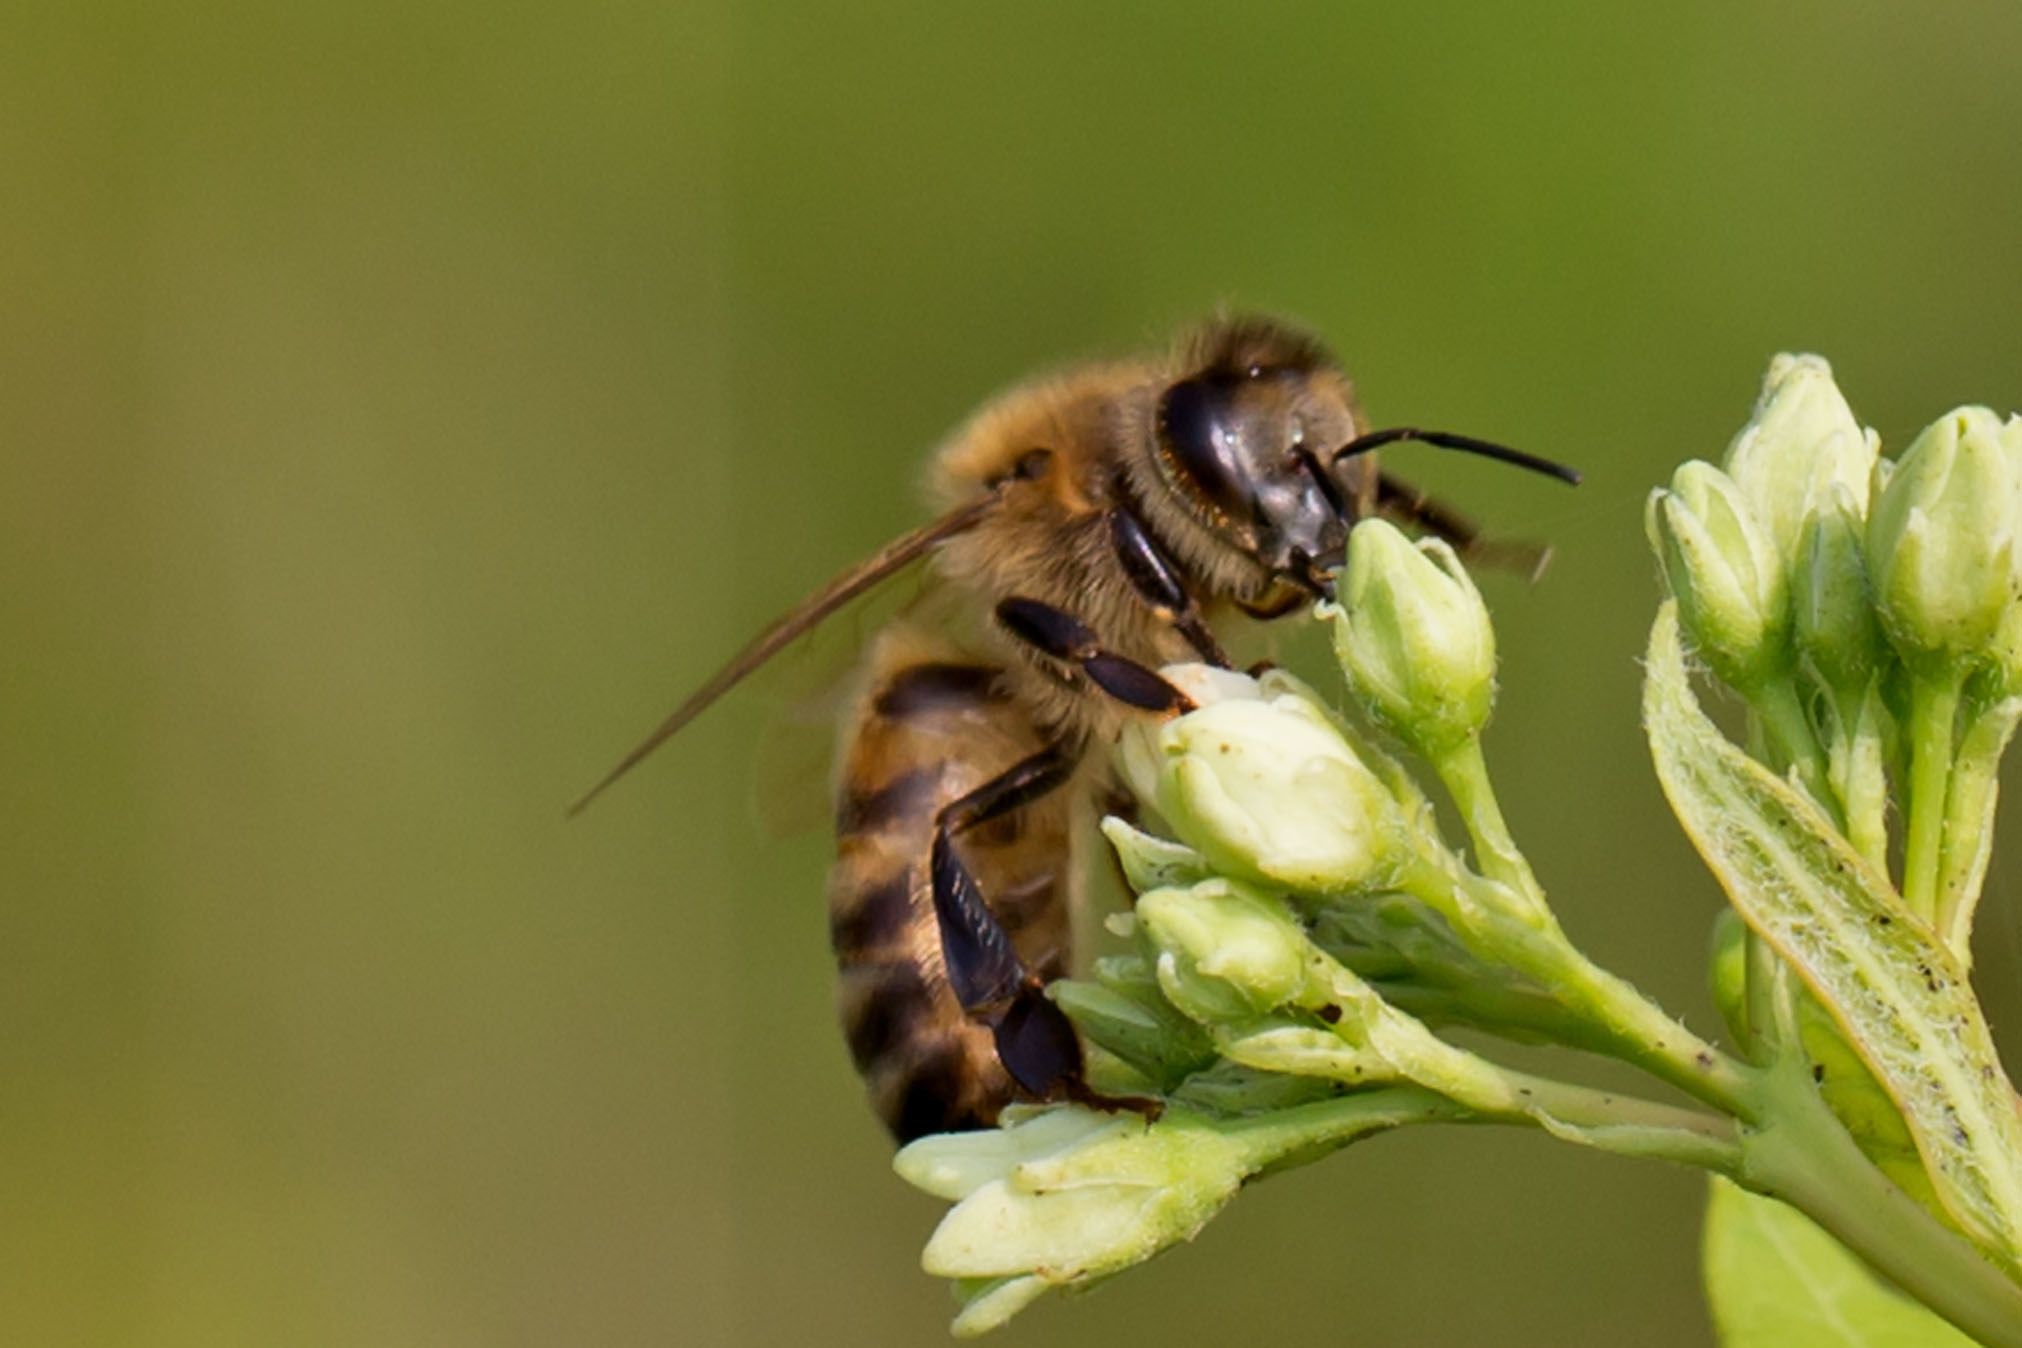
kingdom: Animalia
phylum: Arthropoda
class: Insecta
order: Hymenoptera
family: Apidae
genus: Apis
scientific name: Apis mellifera
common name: Honey bee
